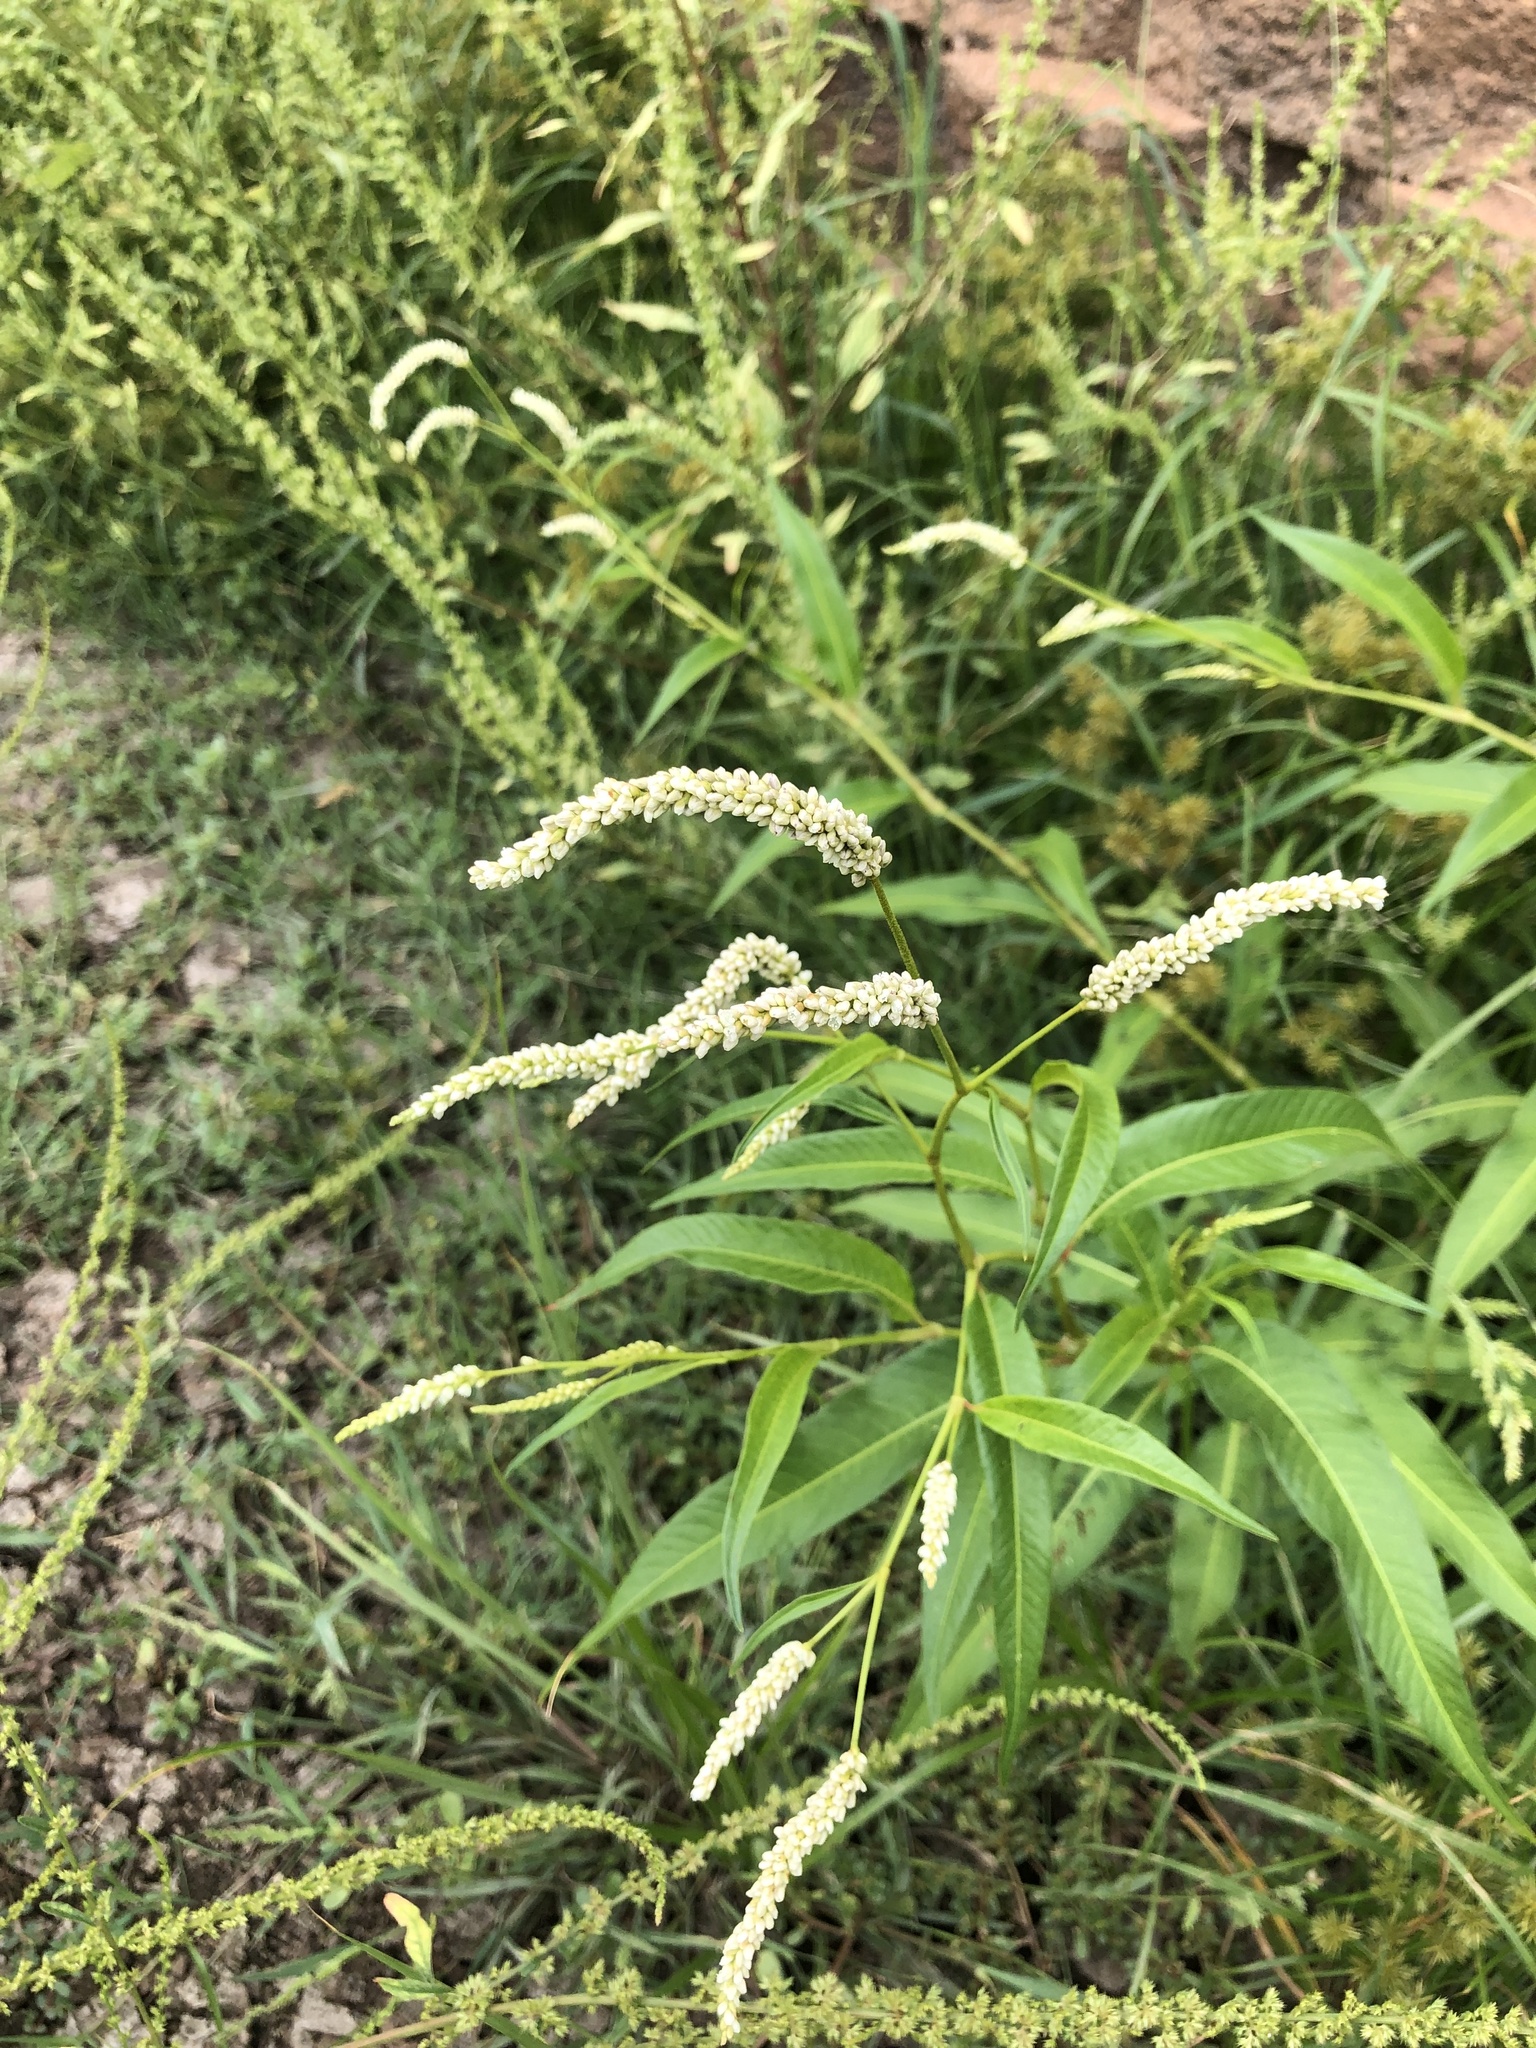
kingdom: Plantae
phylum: Tracheophyta
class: Magnoliopsida
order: Caryophyllales
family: Polygonaceae
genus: Persicaria
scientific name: Persicaria lapathifolia
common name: Curlytop knotweed
